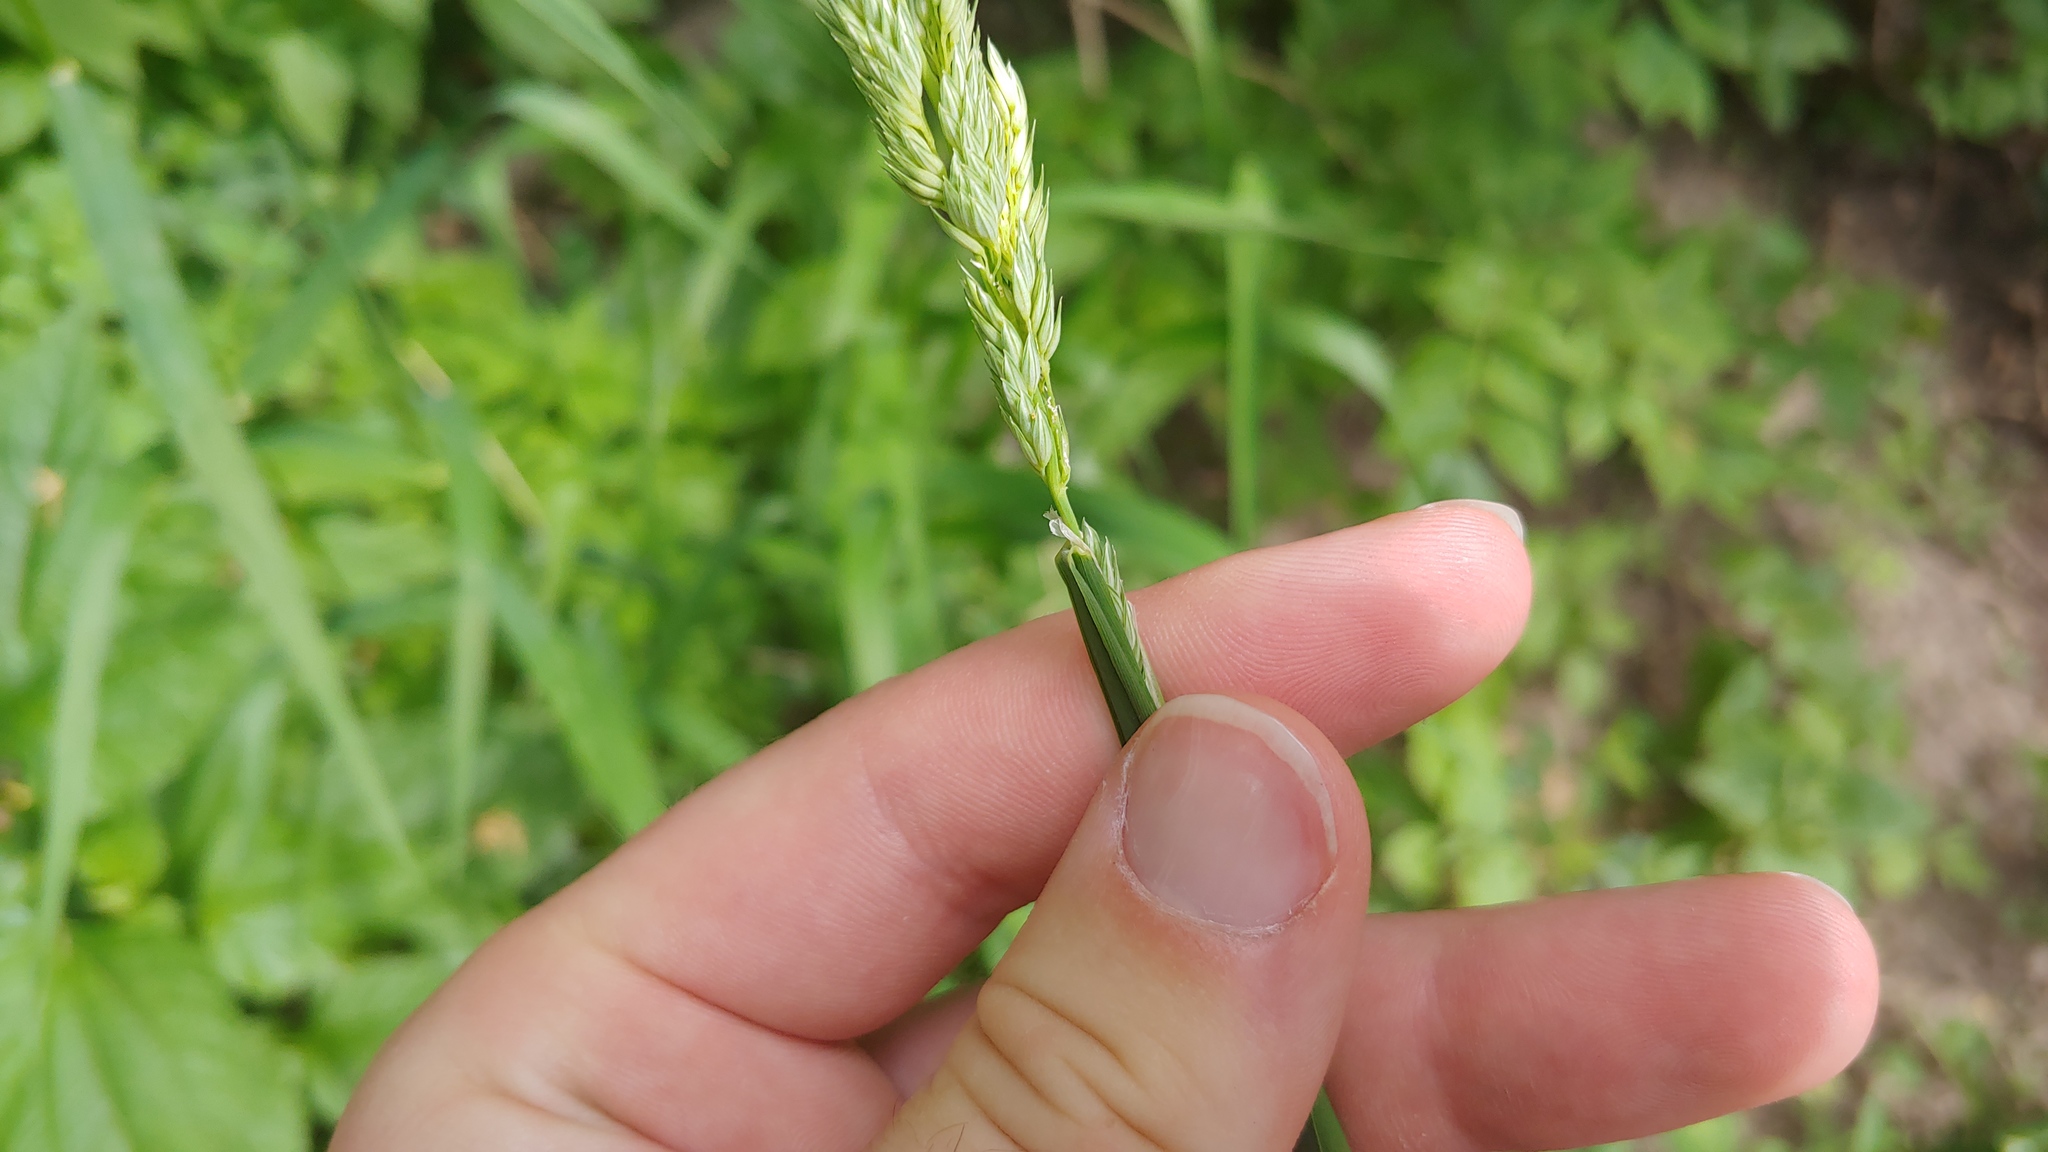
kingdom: Plantae
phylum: Tracheophyta
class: Liliopsida
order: Poales
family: Poaceae
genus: Phalaris
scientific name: Phalaris arundinacea
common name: Reed canary-grass
